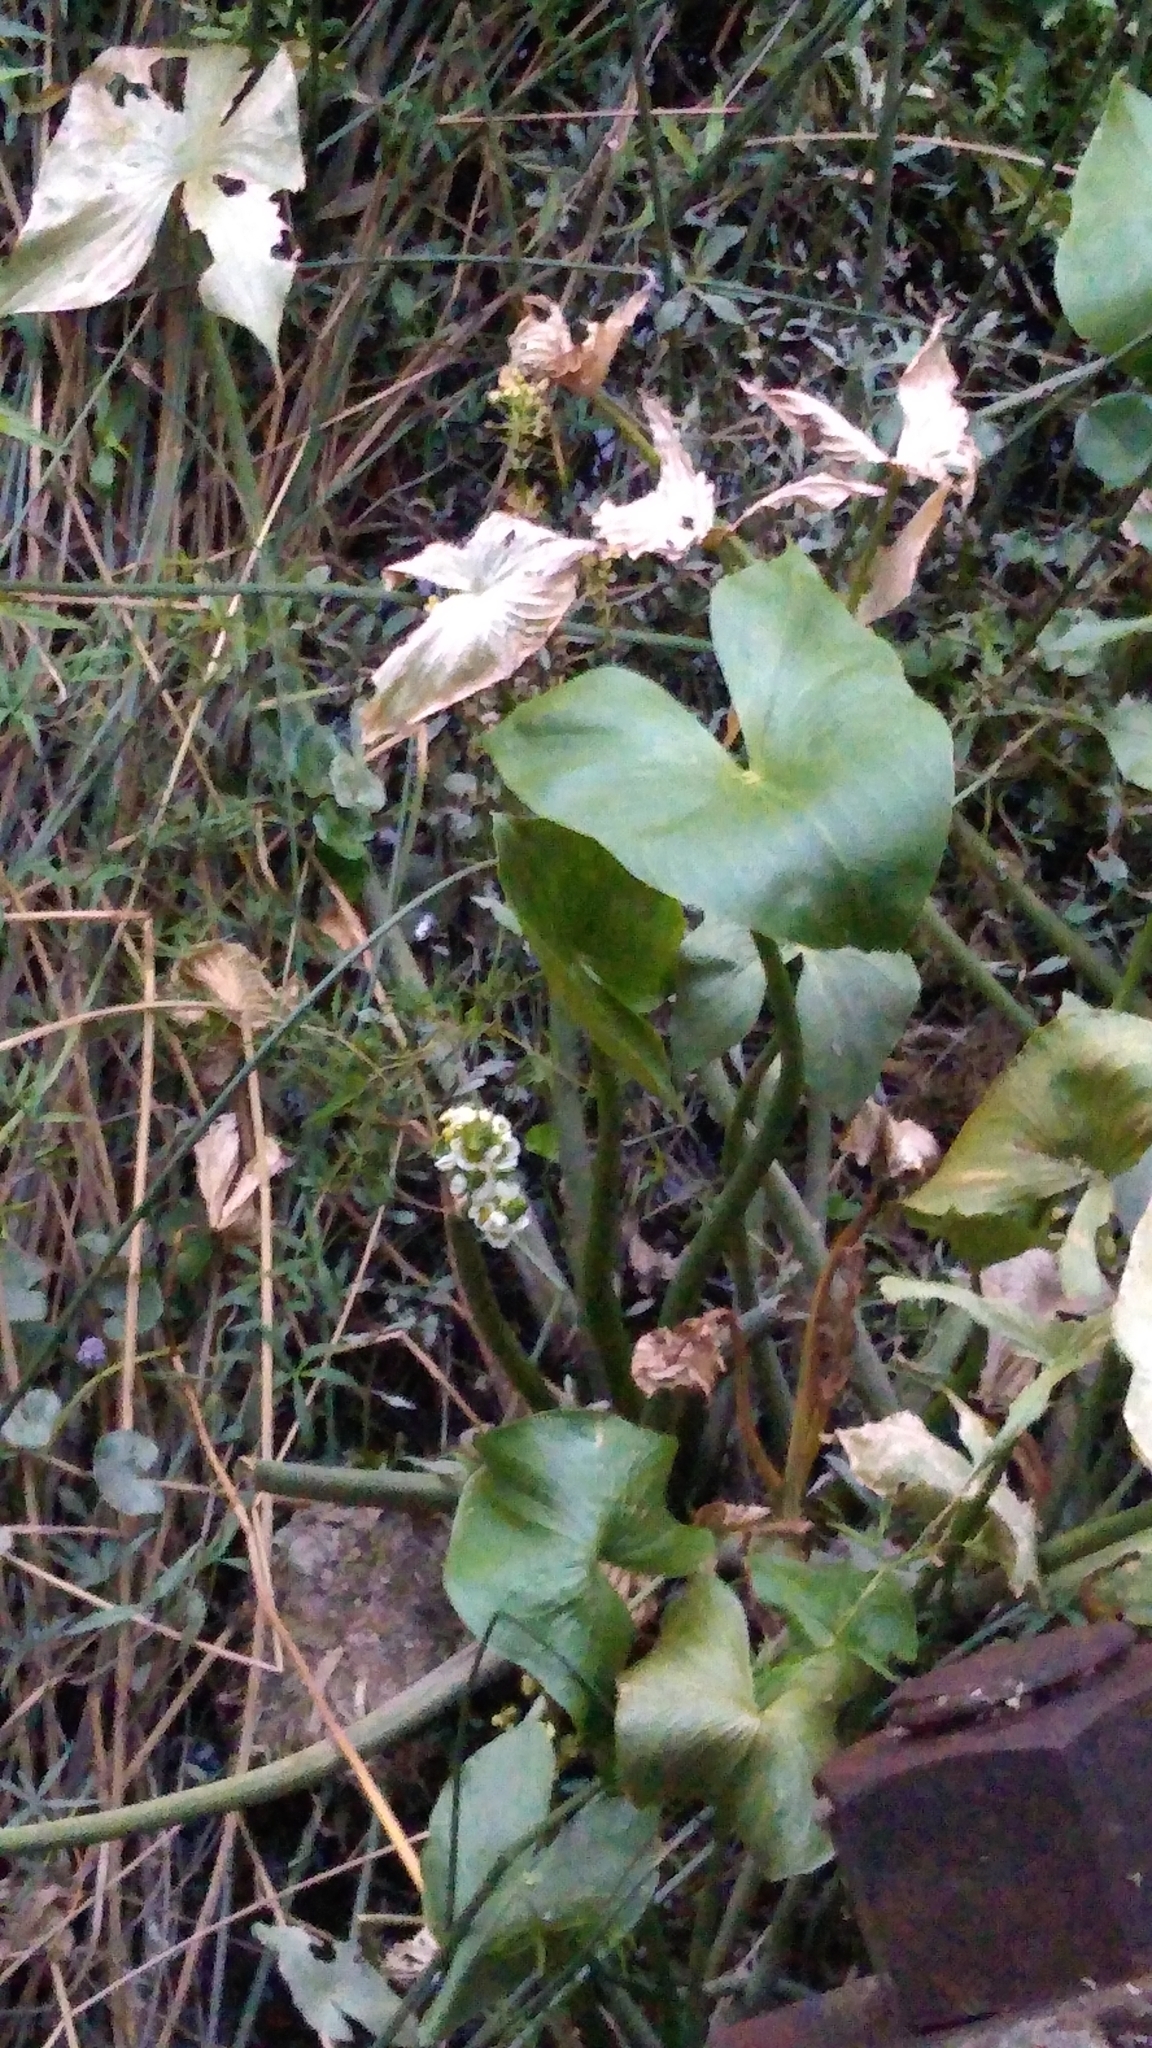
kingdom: Plantae
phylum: Tracheophyta
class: Liliopsida
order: Alismatales
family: Alismataceae
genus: Sagittaria
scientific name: Sagittaria montevidensis
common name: Giant arrowhead
